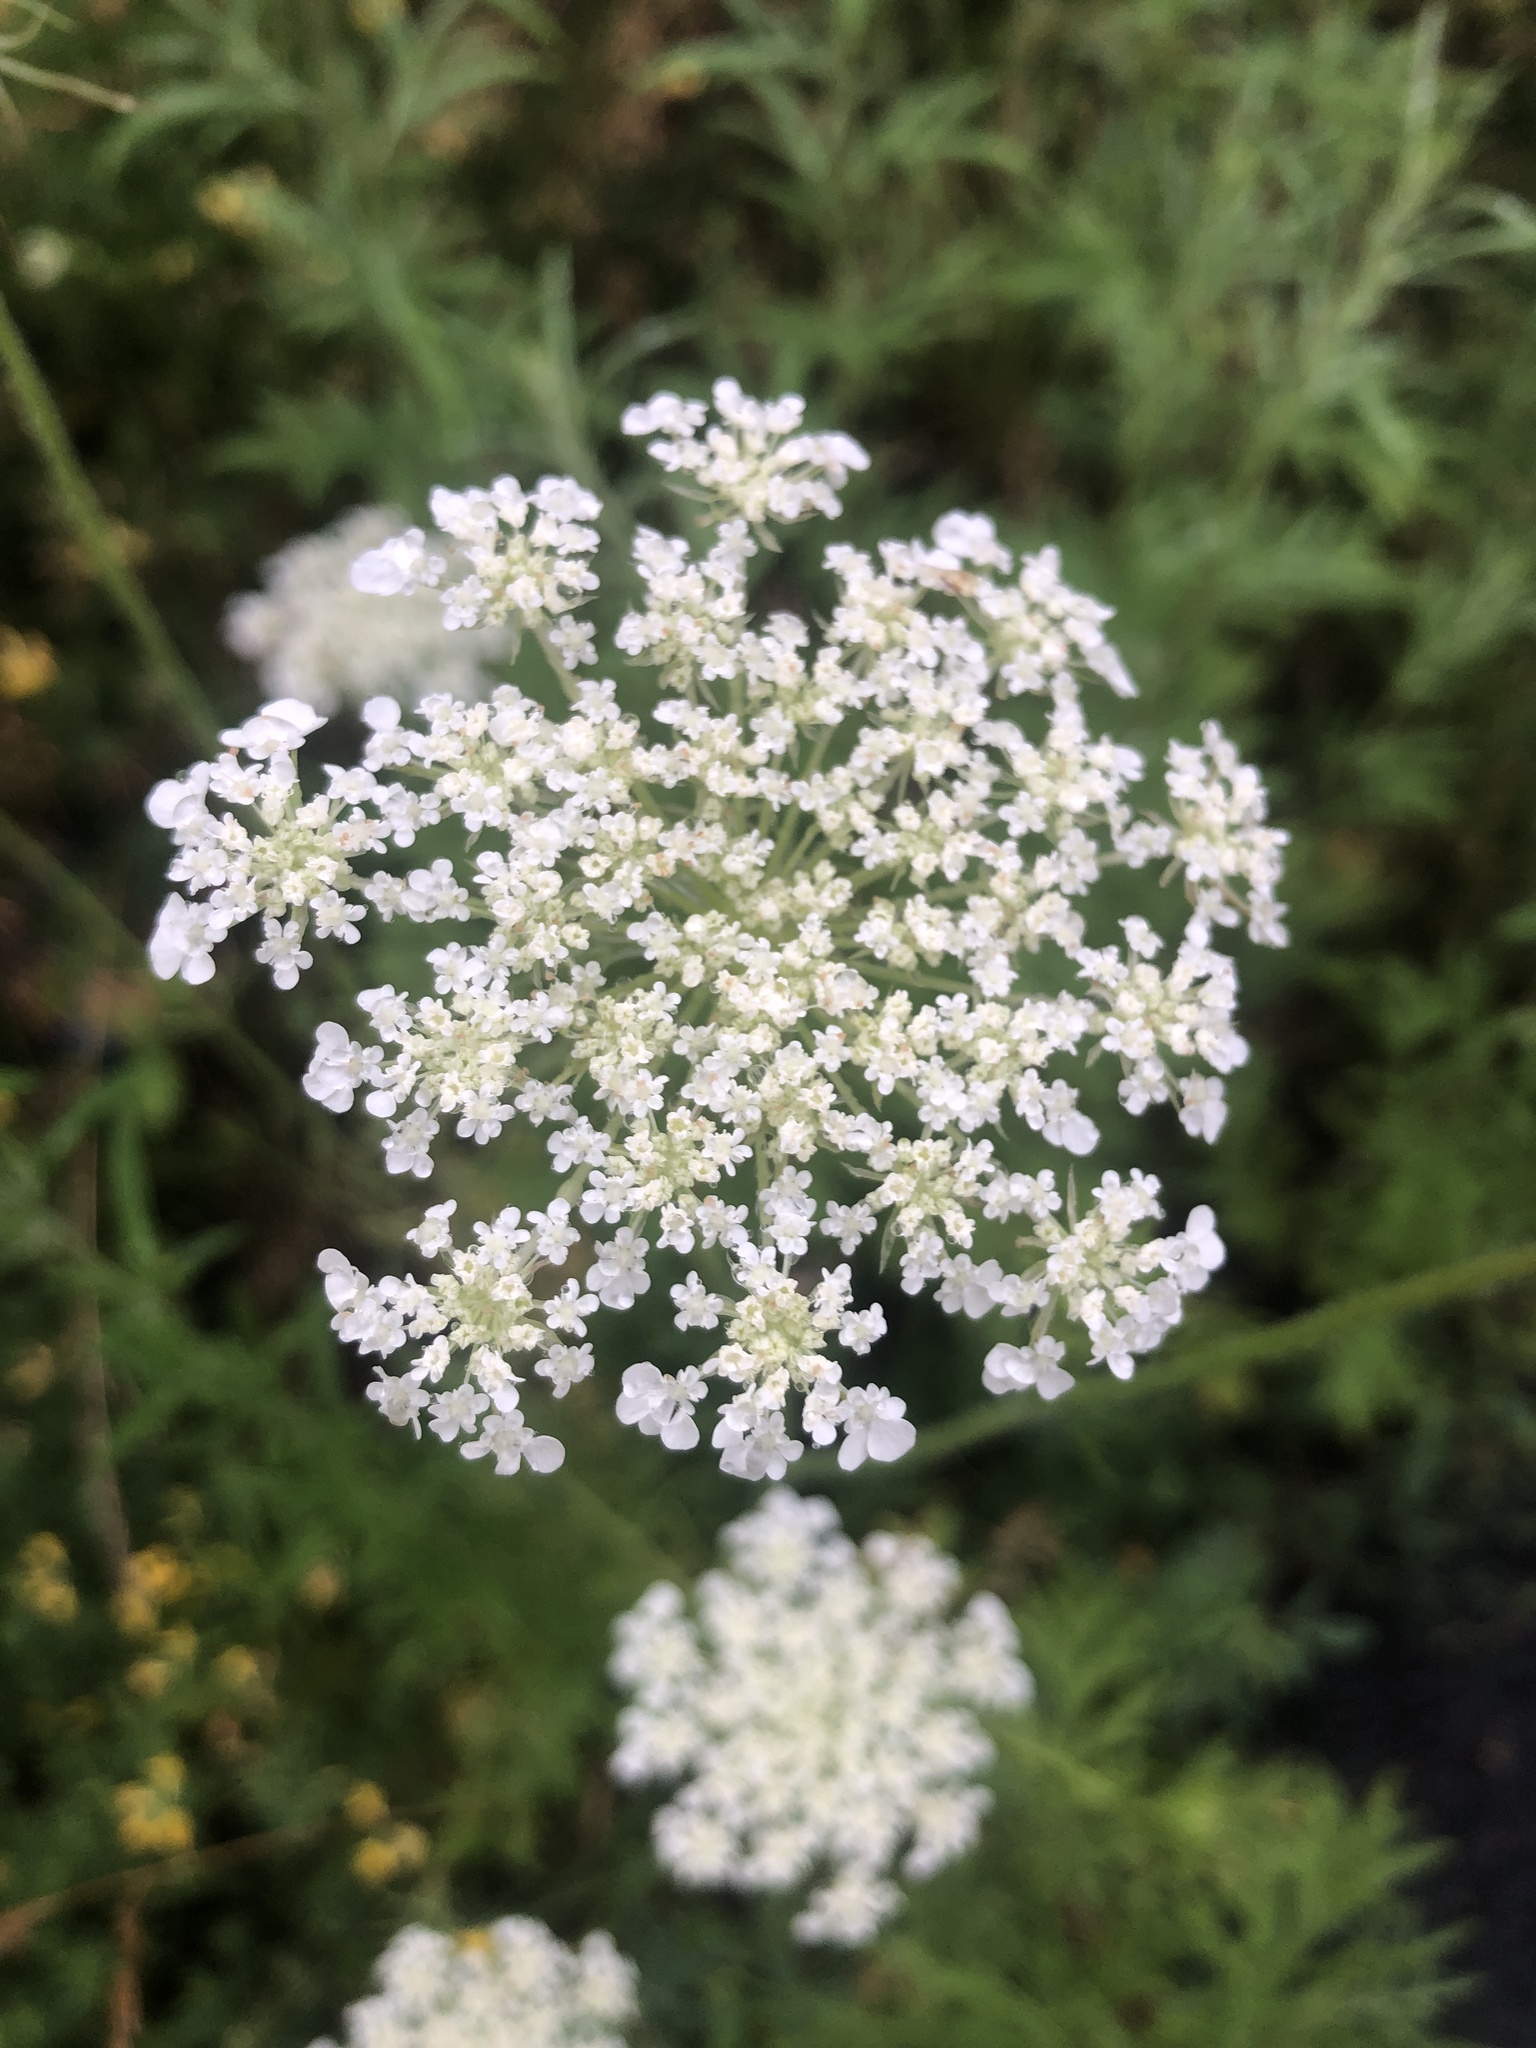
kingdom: Plantae
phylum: Tracheophyta
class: Magnoliopsida
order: Apiales
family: Apiaceae
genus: Daucus
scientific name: Daucus carota
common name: Wild carrot
